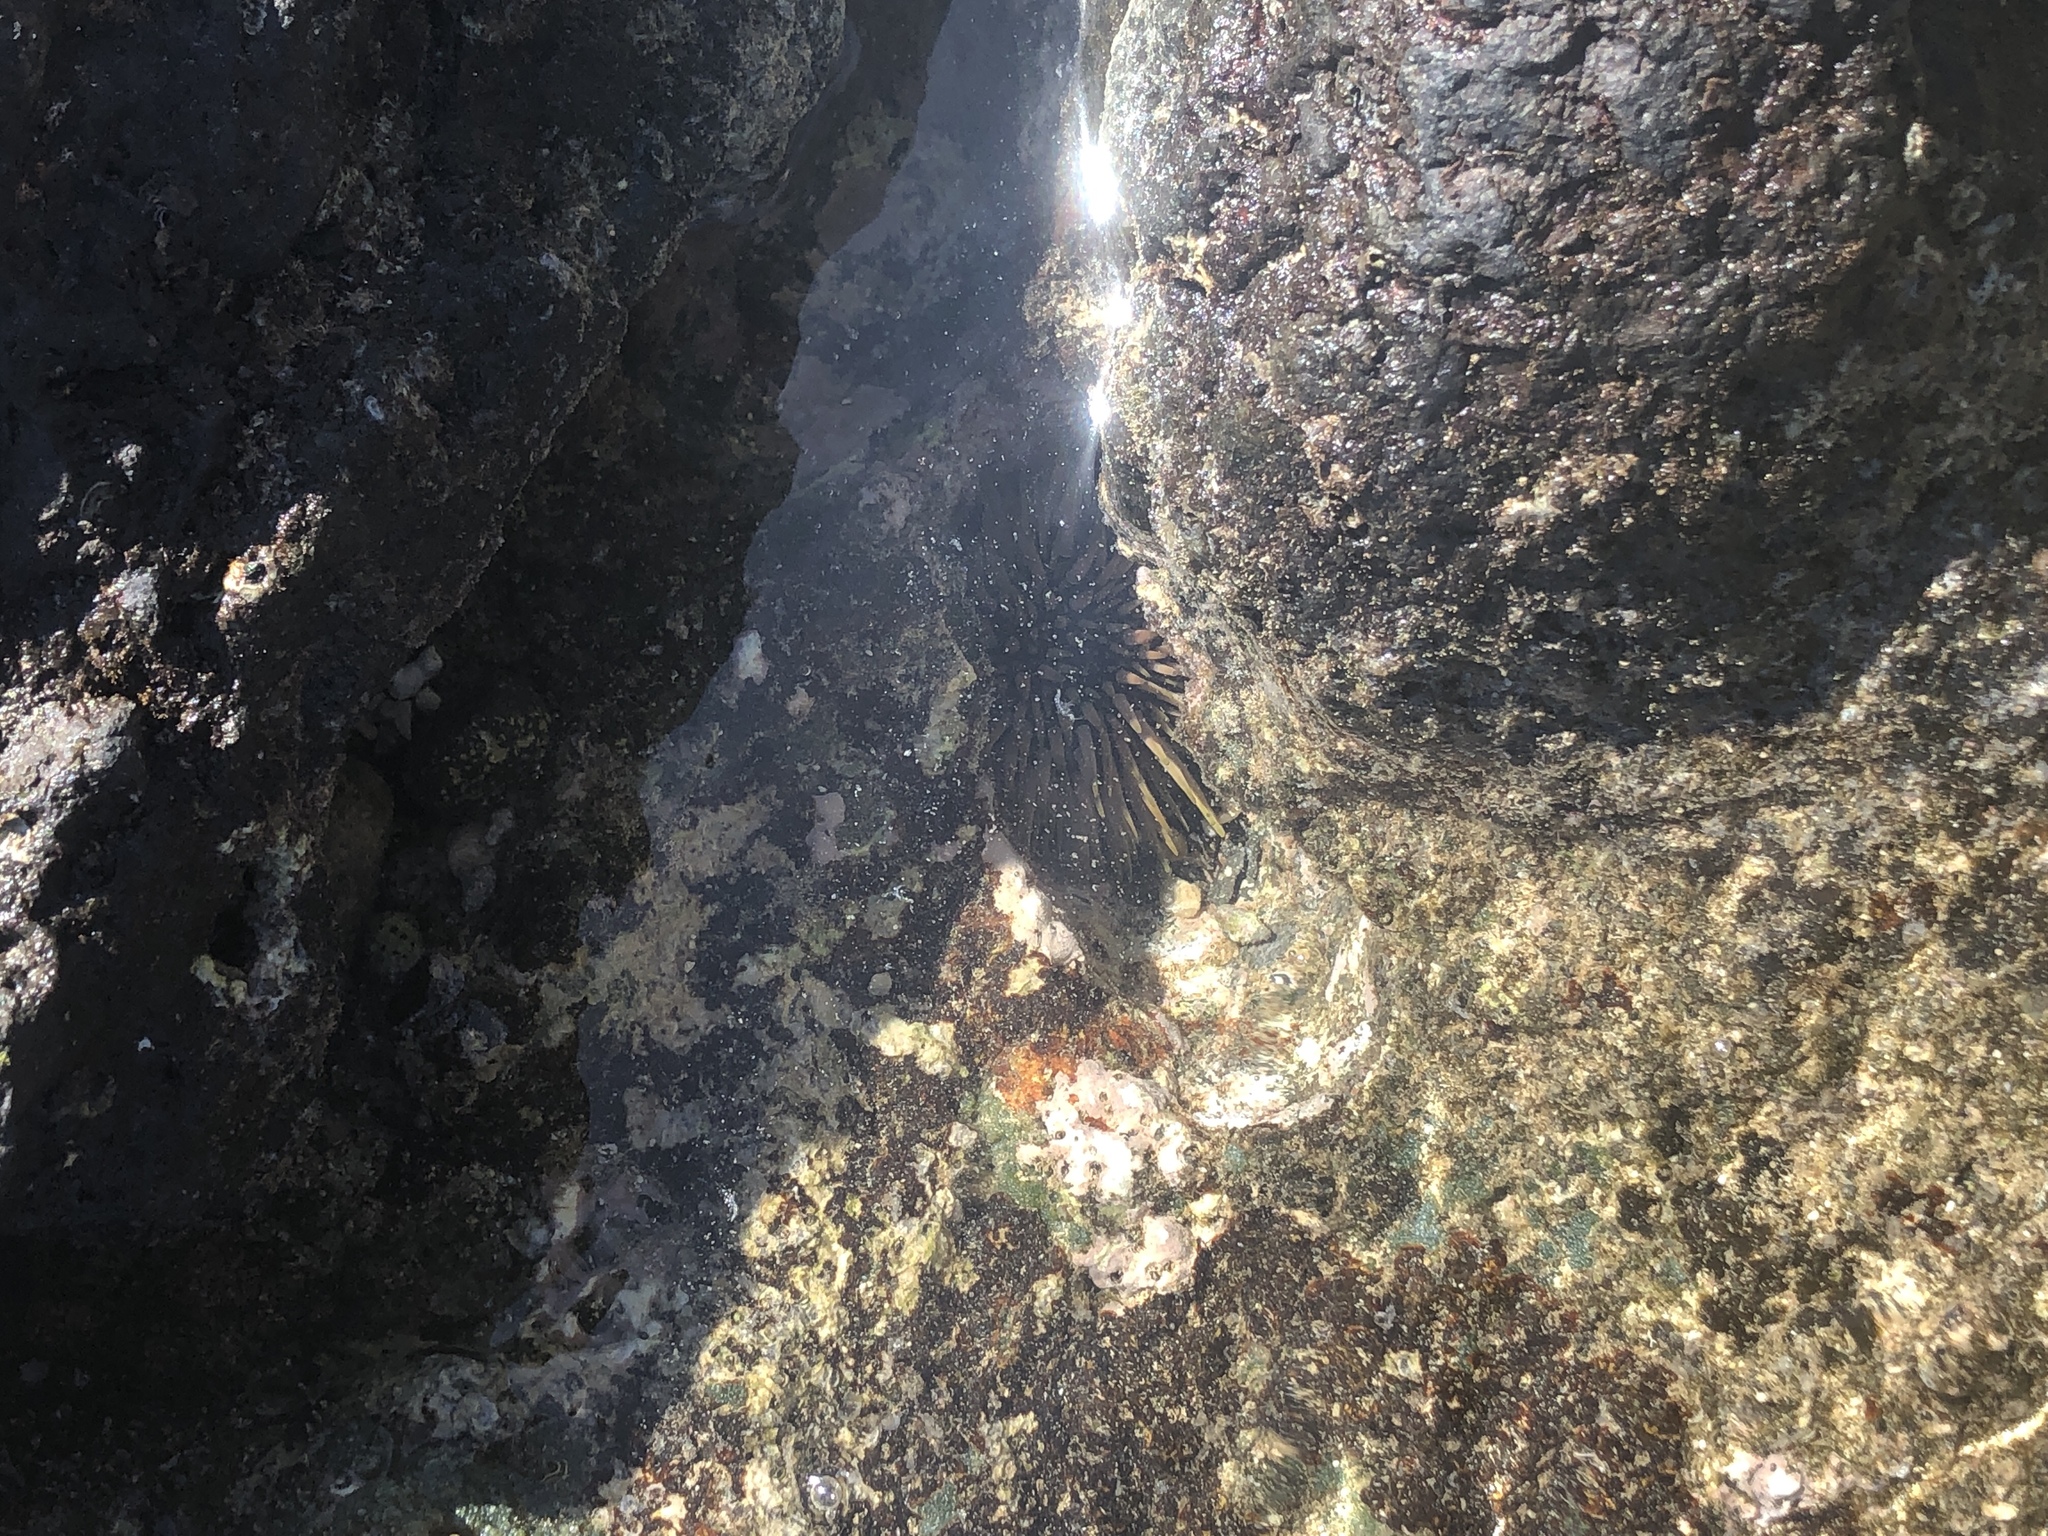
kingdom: Animalia
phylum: Echinodermata
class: Echinoidea
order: Camarodonta
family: Echinometridae
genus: Echinometra
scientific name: Echinometra mathaei
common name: Rock-boring urchin
